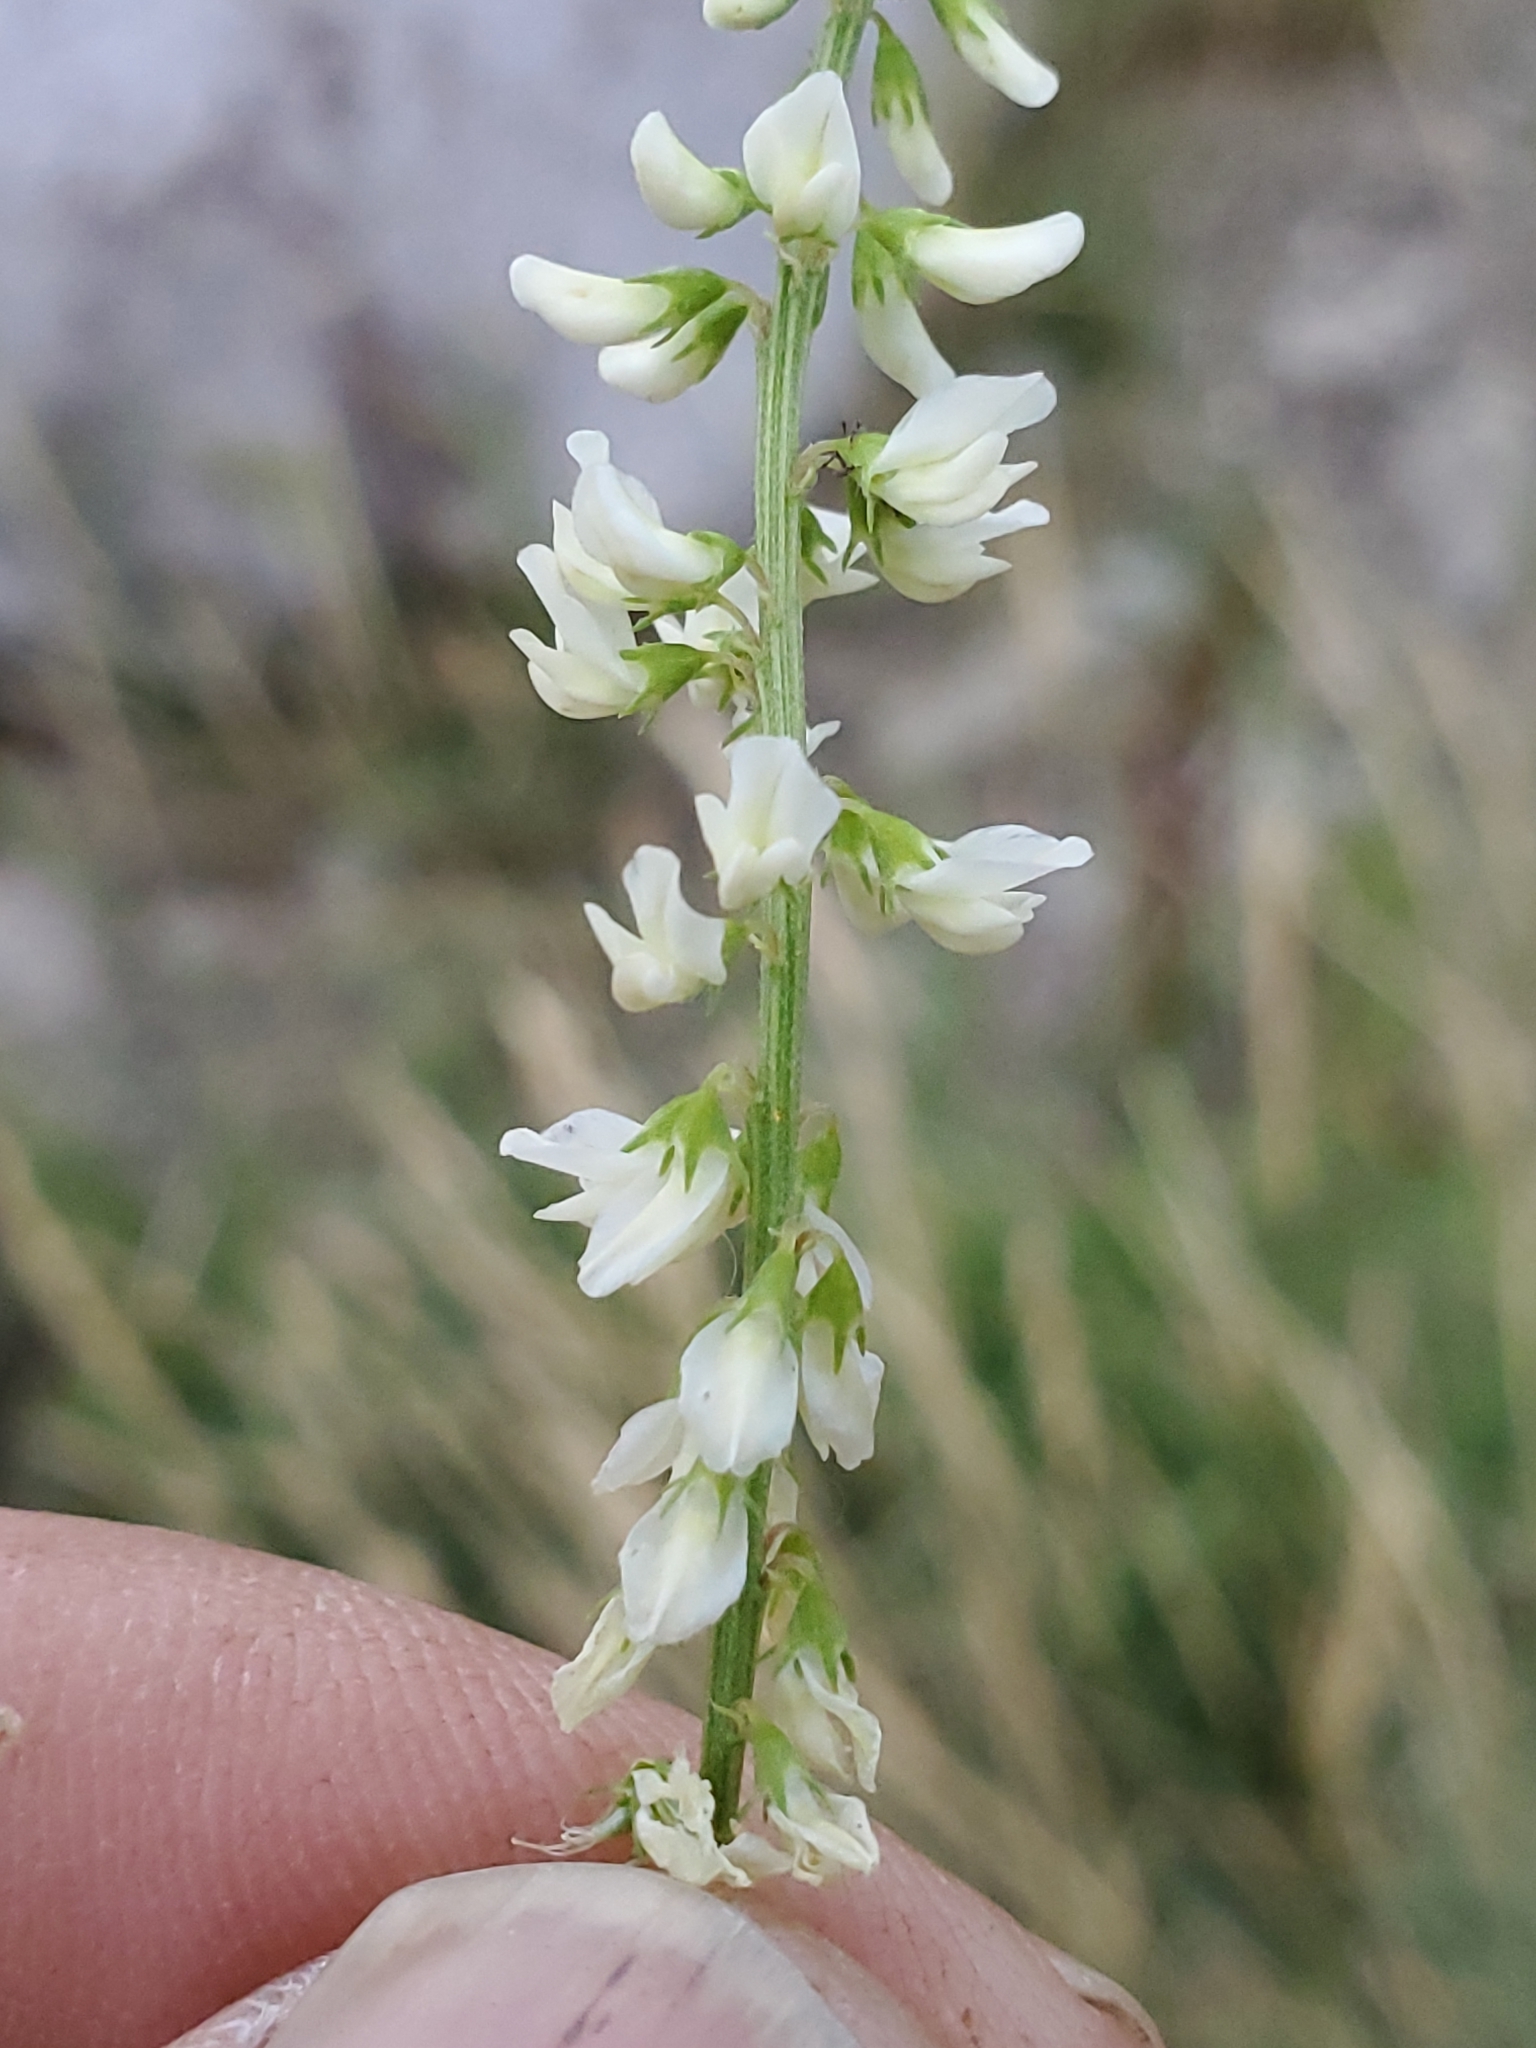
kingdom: Plantae
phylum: Tracheophyta
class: Magnoliopsida
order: Fabales
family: Fabaceae
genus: Melilotus
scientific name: Melilotus albus
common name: White melilot
